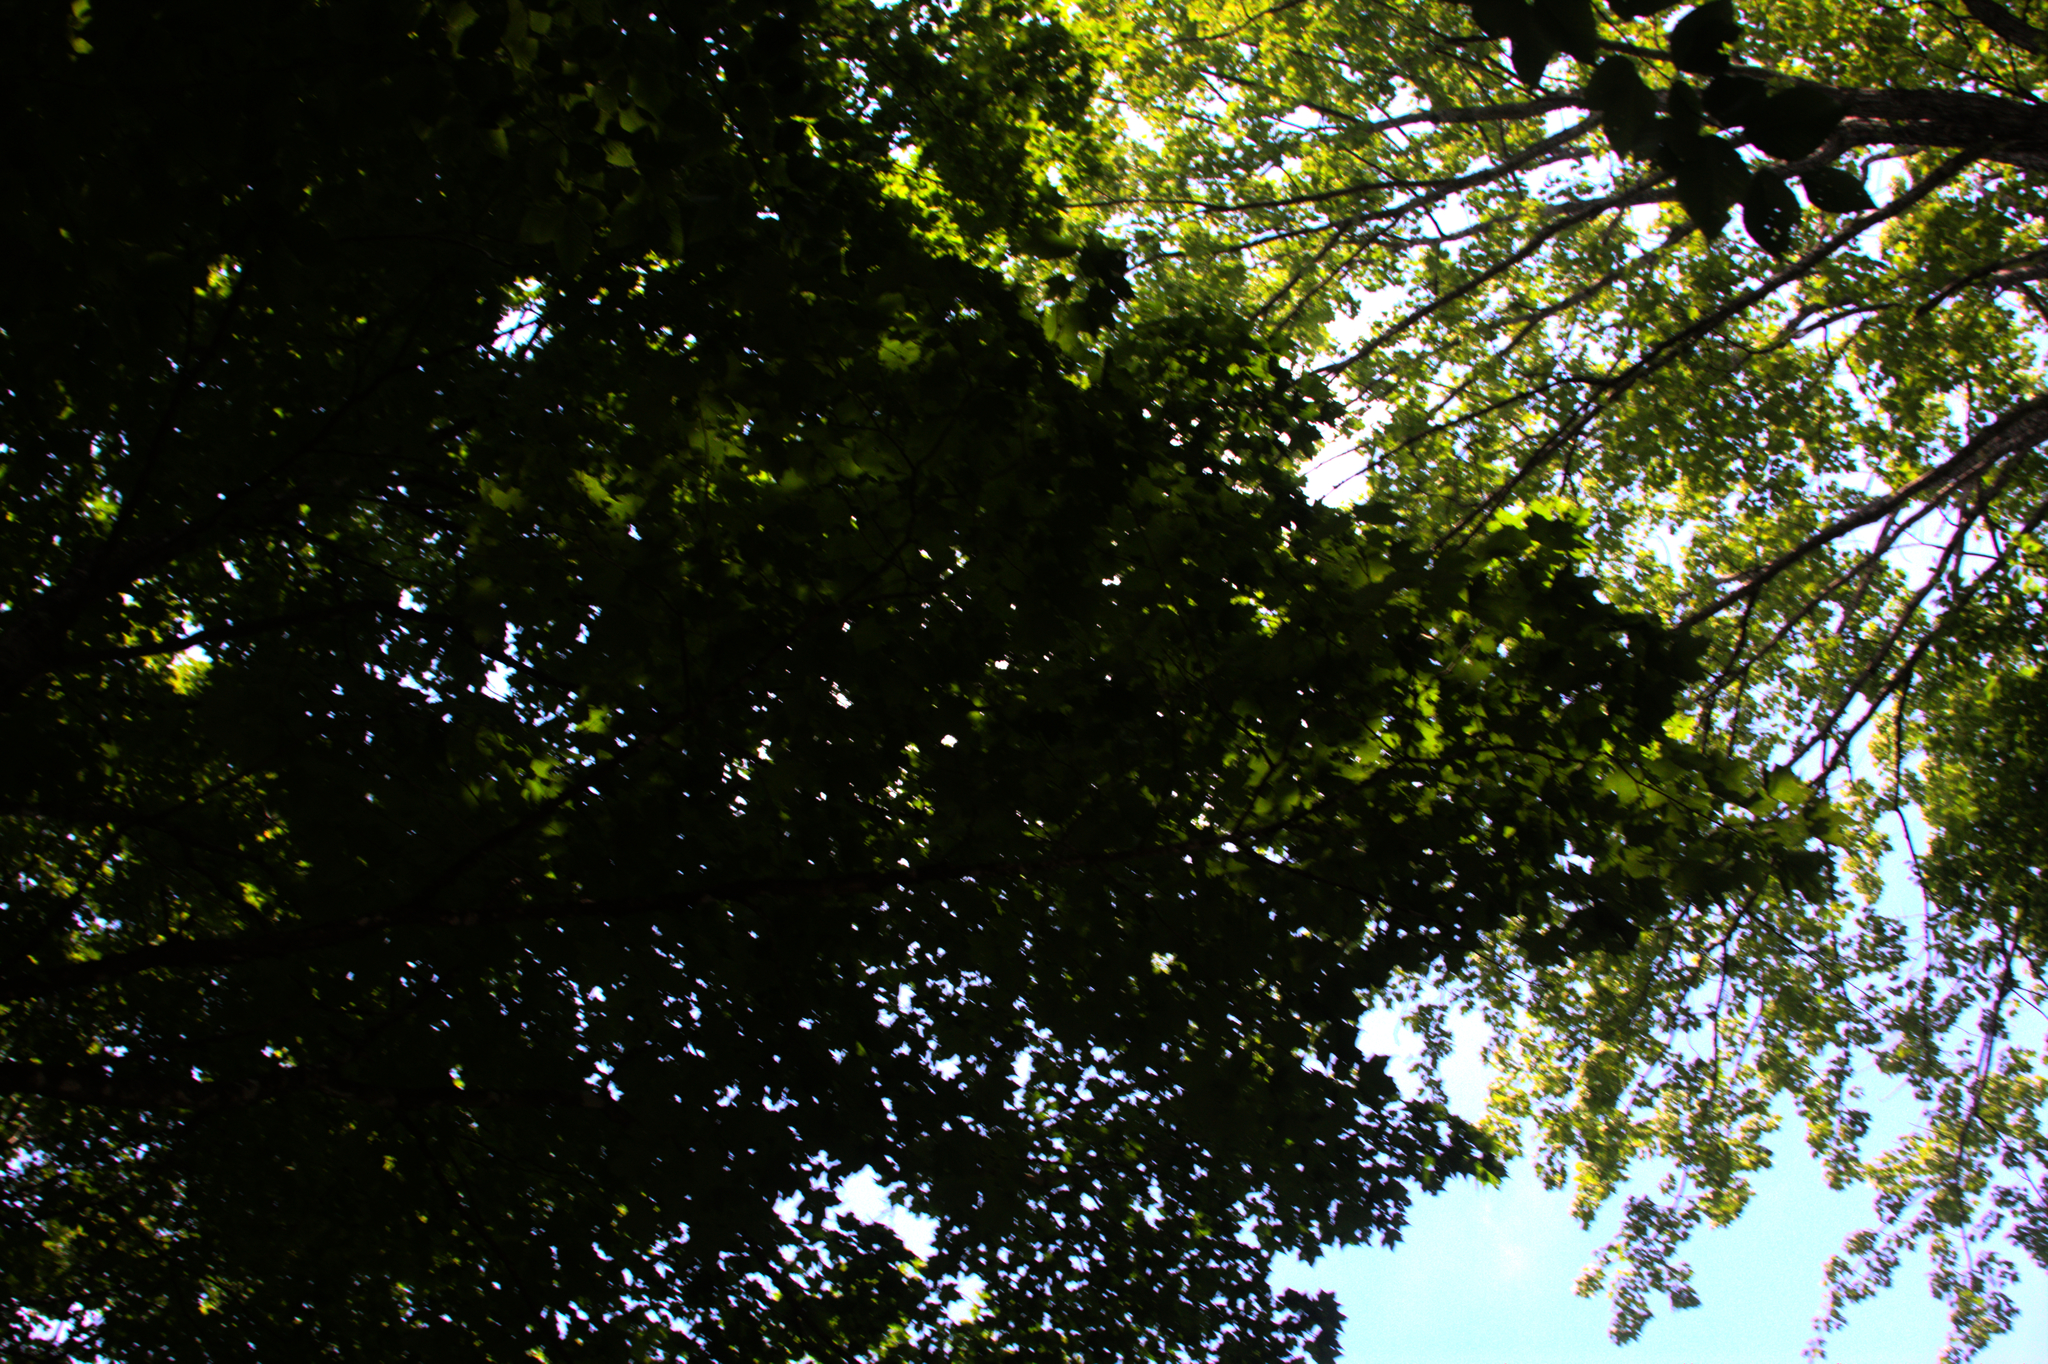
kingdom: Plantae
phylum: Tracheophyta
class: Magnoliopsida
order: Sapindales
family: Sapindaceae
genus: Acer
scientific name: Acer saccharum
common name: Sugar maple
